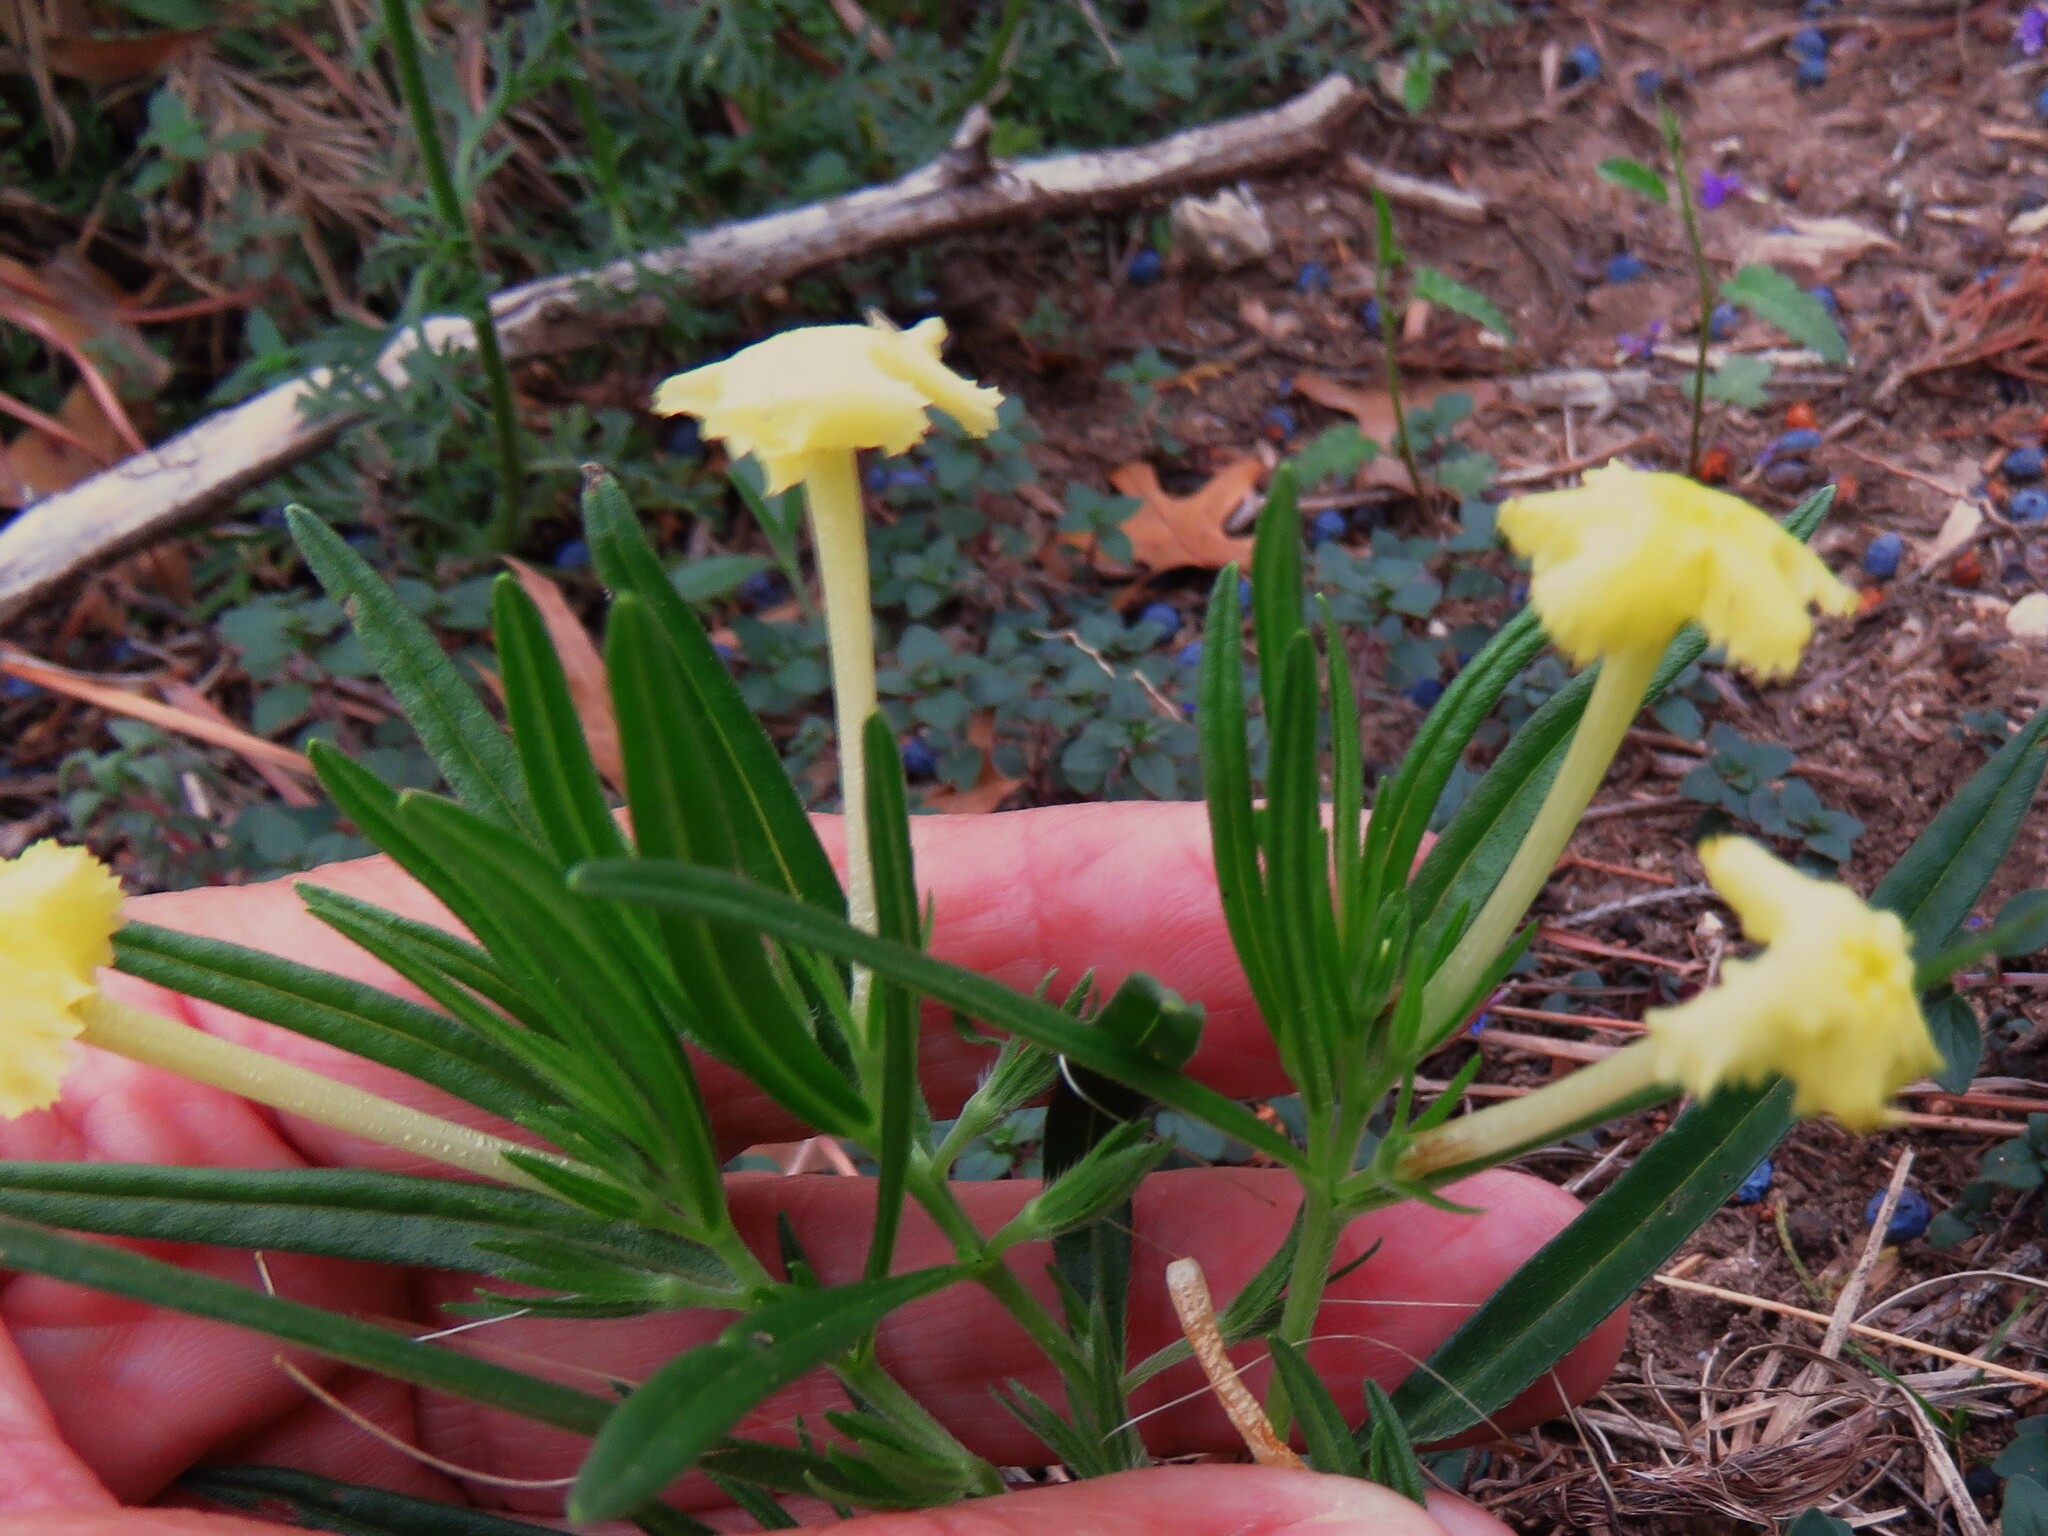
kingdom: Plantae
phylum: Tracheophyta
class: Magnoliopsida
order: Boraginales
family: Boraginaceae
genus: Lithospermum
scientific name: Lithospermum incisum
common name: Fringed gromwell
